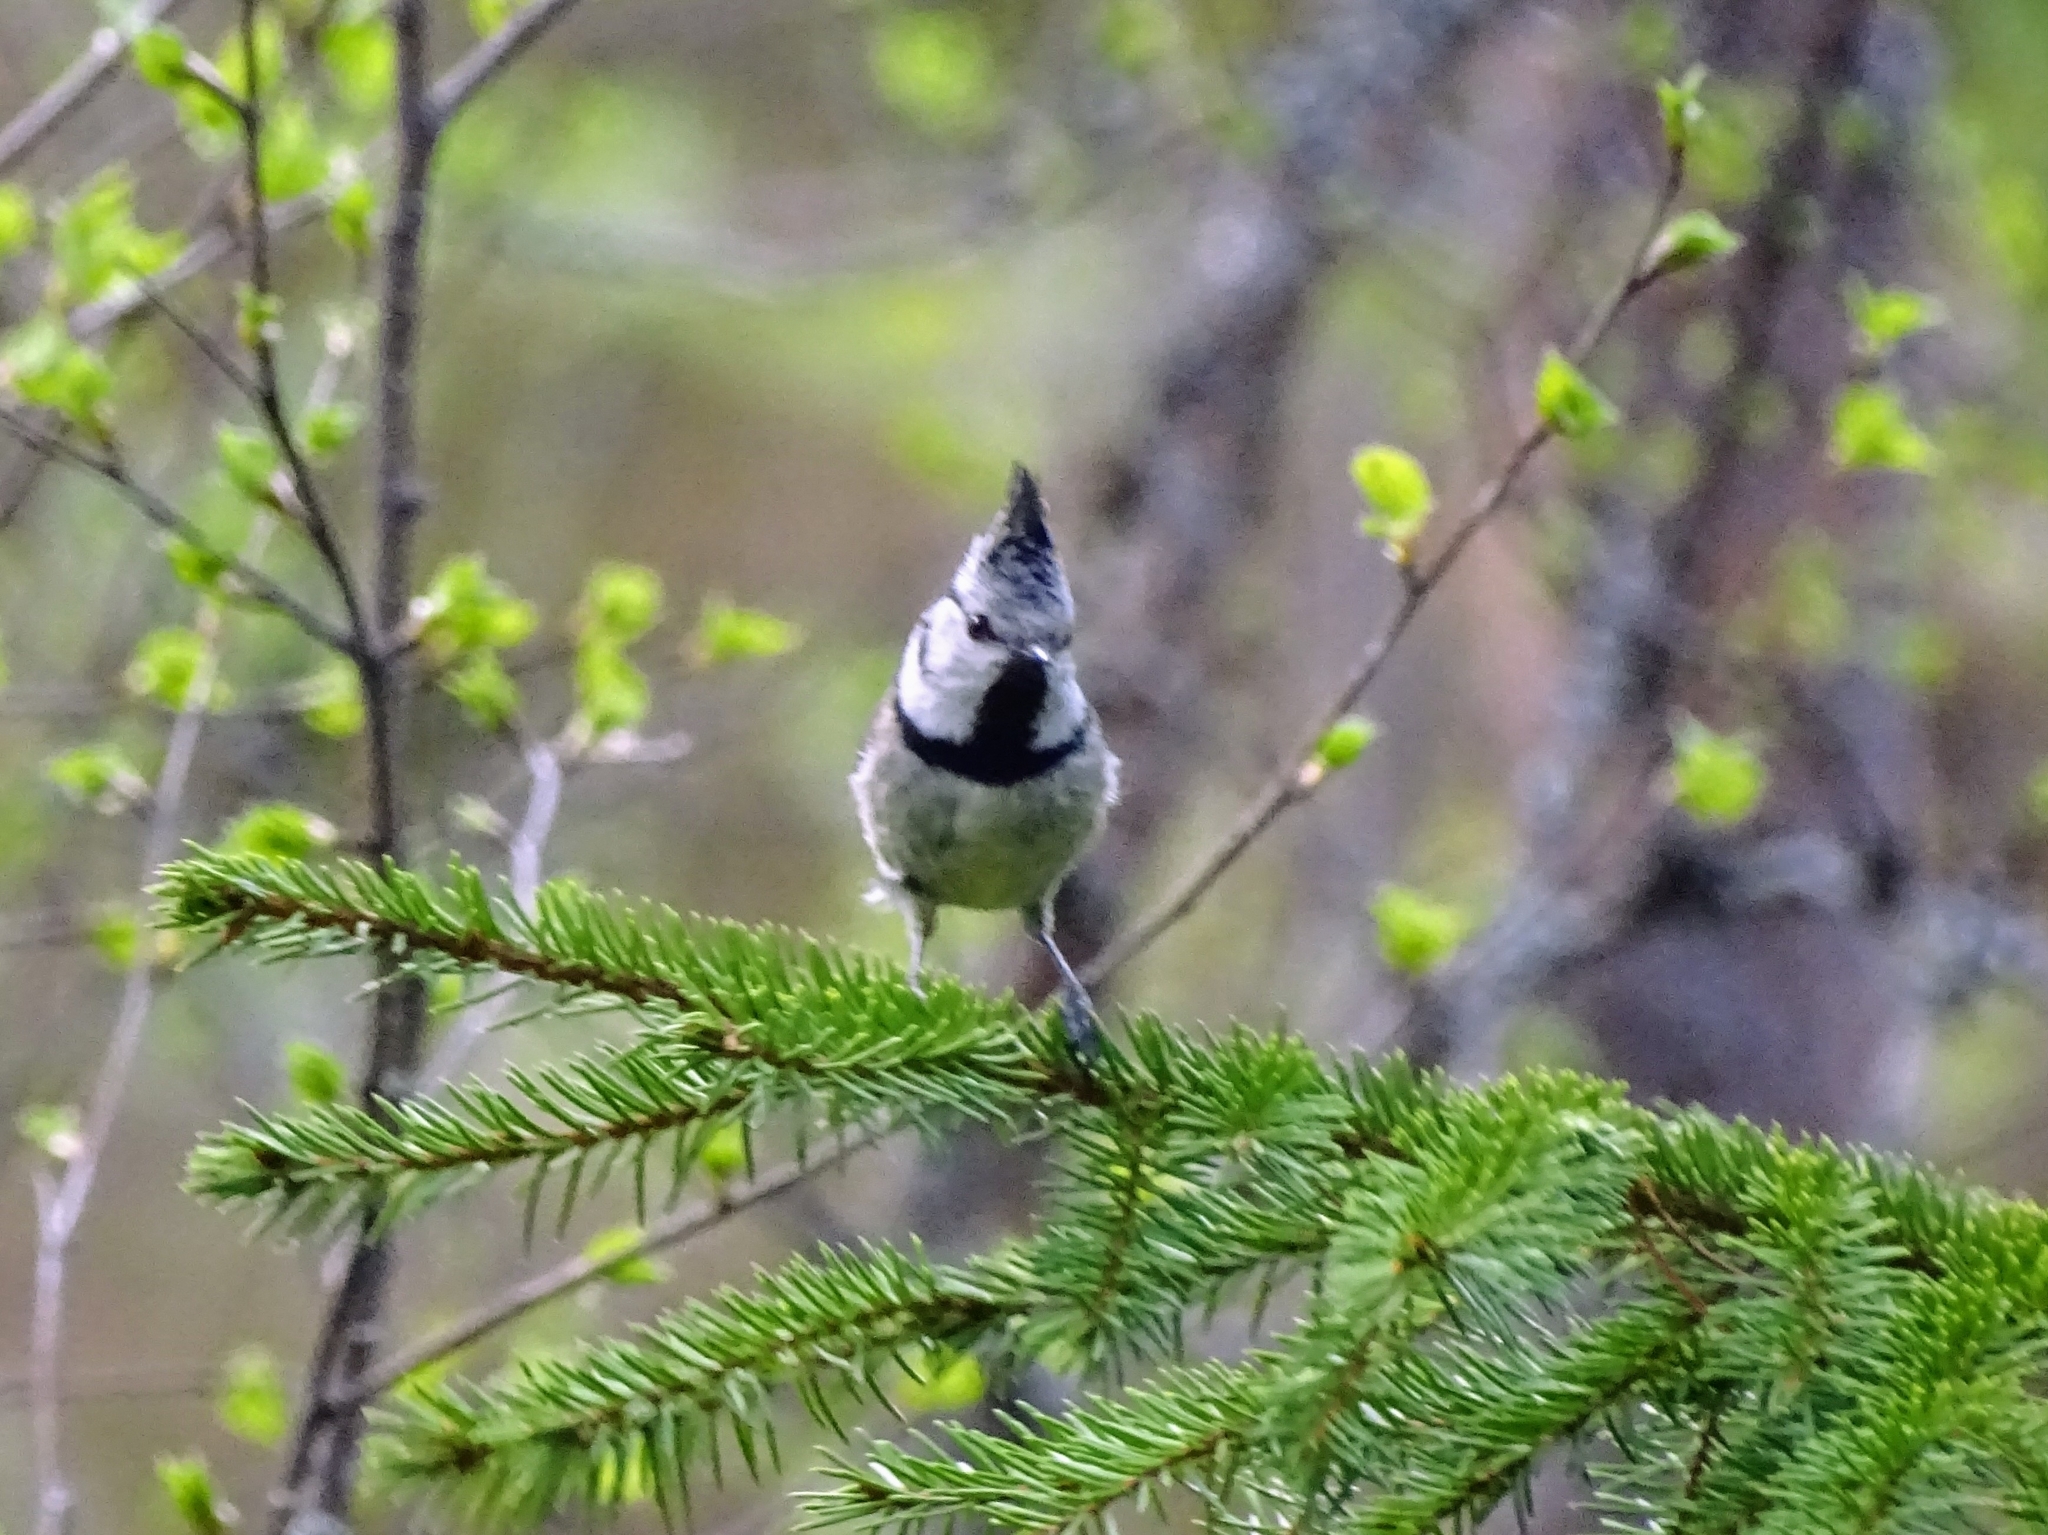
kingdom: Animalia
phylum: Chordata
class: Aves
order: Passeriformes
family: Paridae
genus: Lophophanes
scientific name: Lophophanes cristatus
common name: European crested tit
